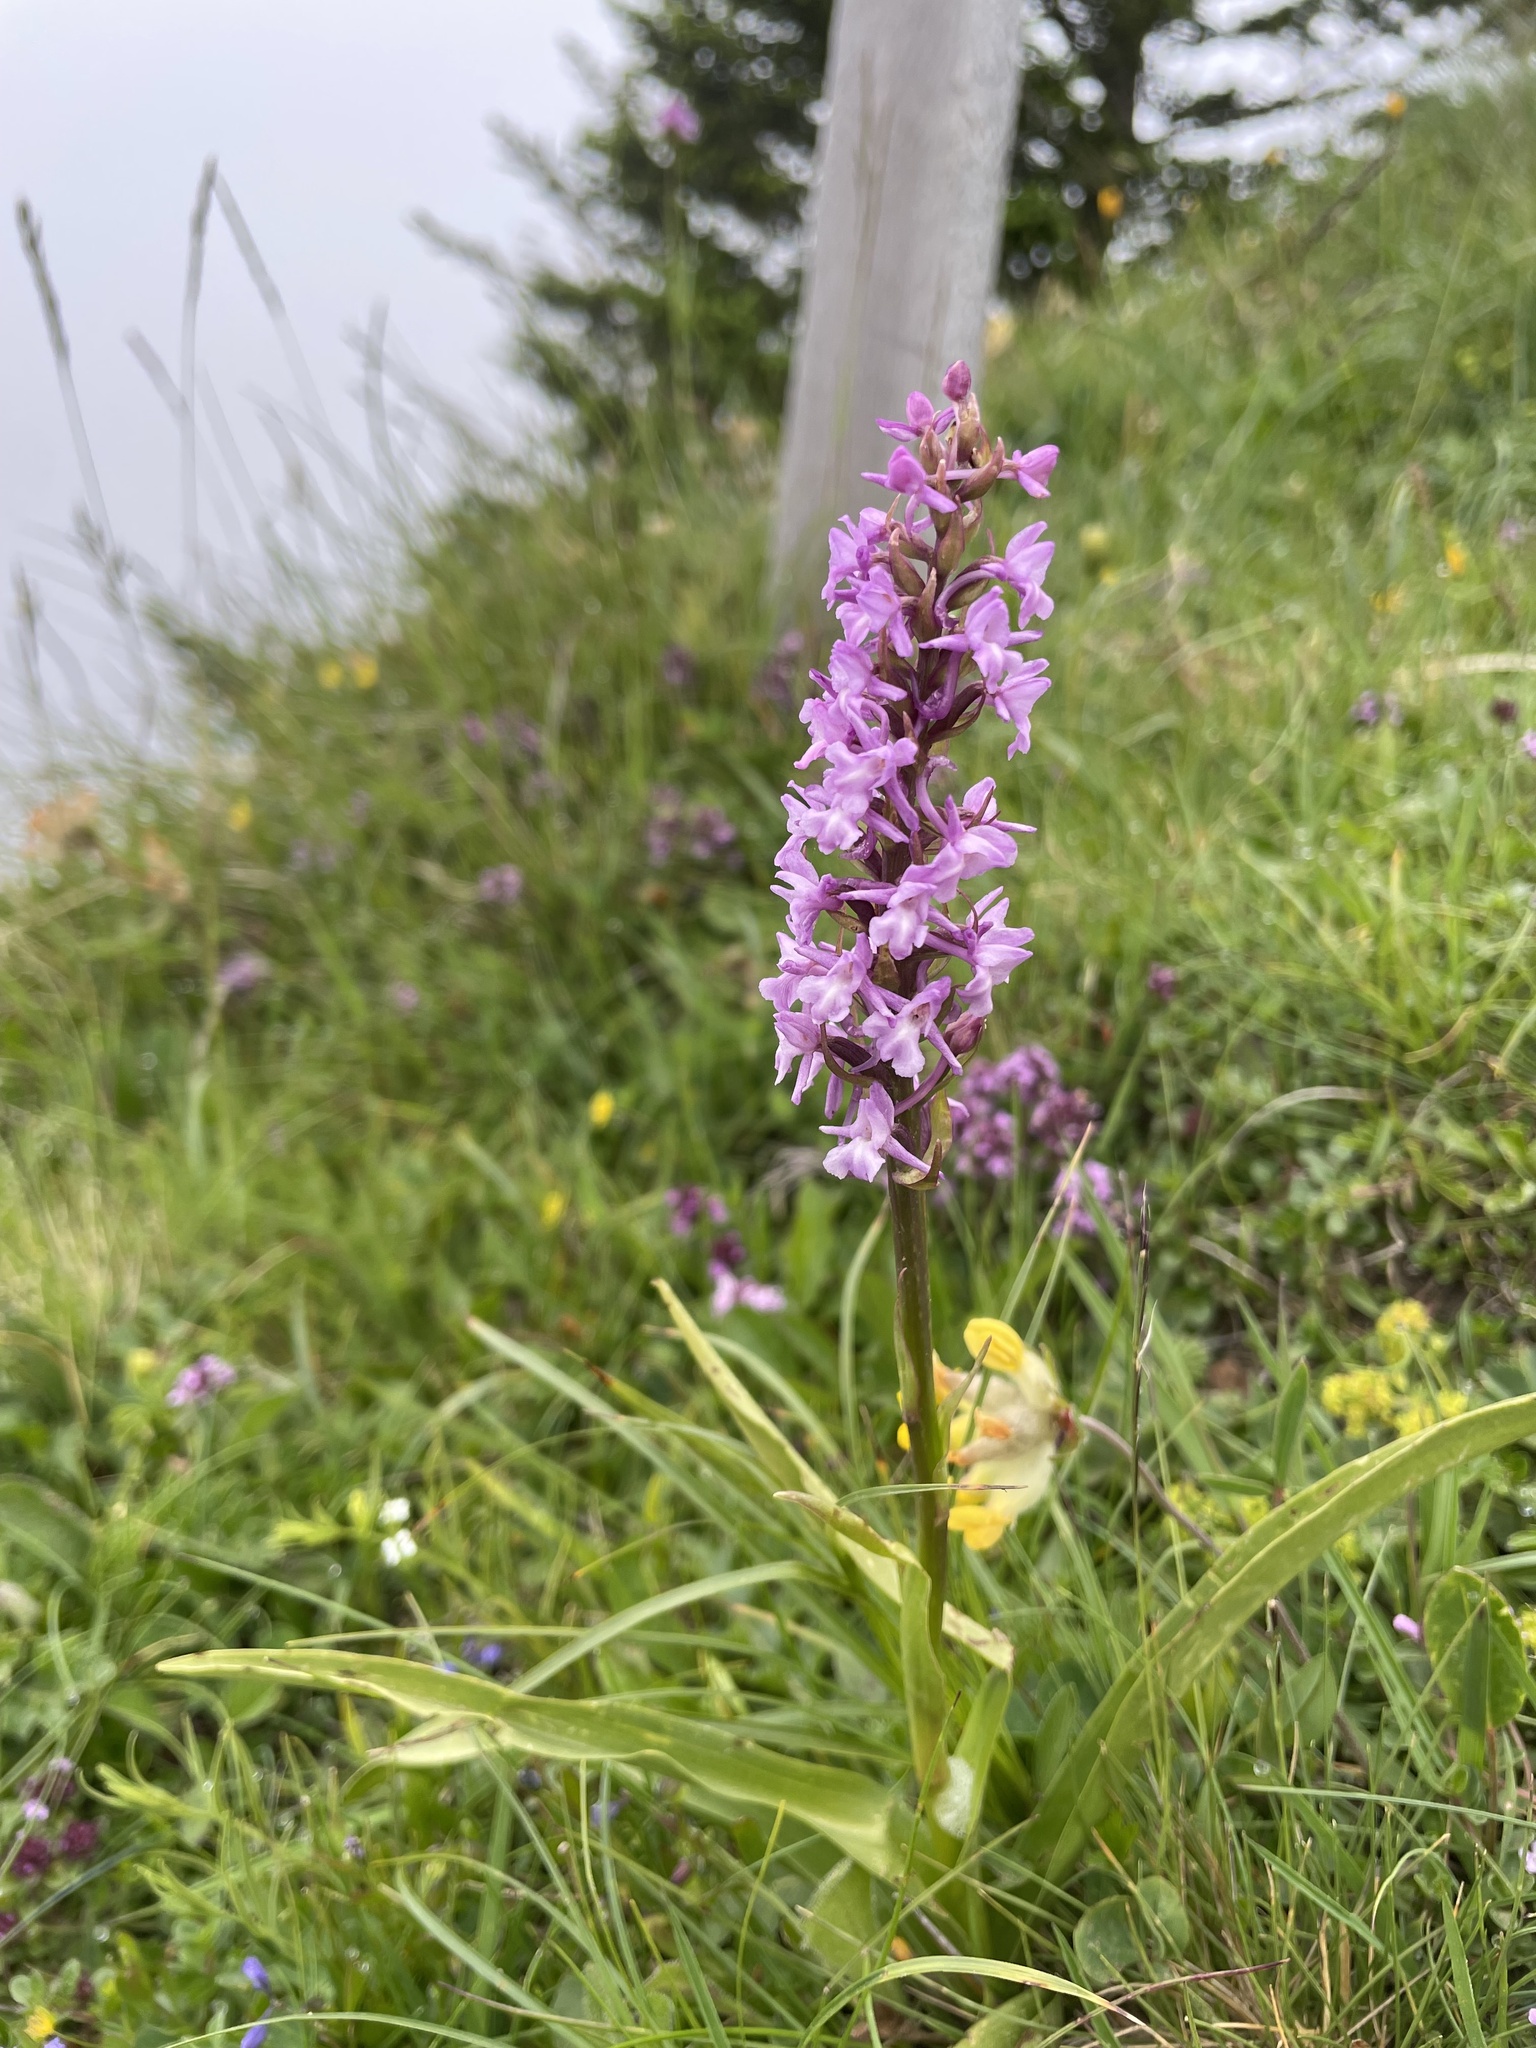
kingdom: Plantae
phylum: Tracheophyta
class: Liliopsida
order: Asparagales
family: Orchidaceae
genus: Gymnadenia
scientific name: Gymnadenia conopsea
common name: Fragrant orchid
